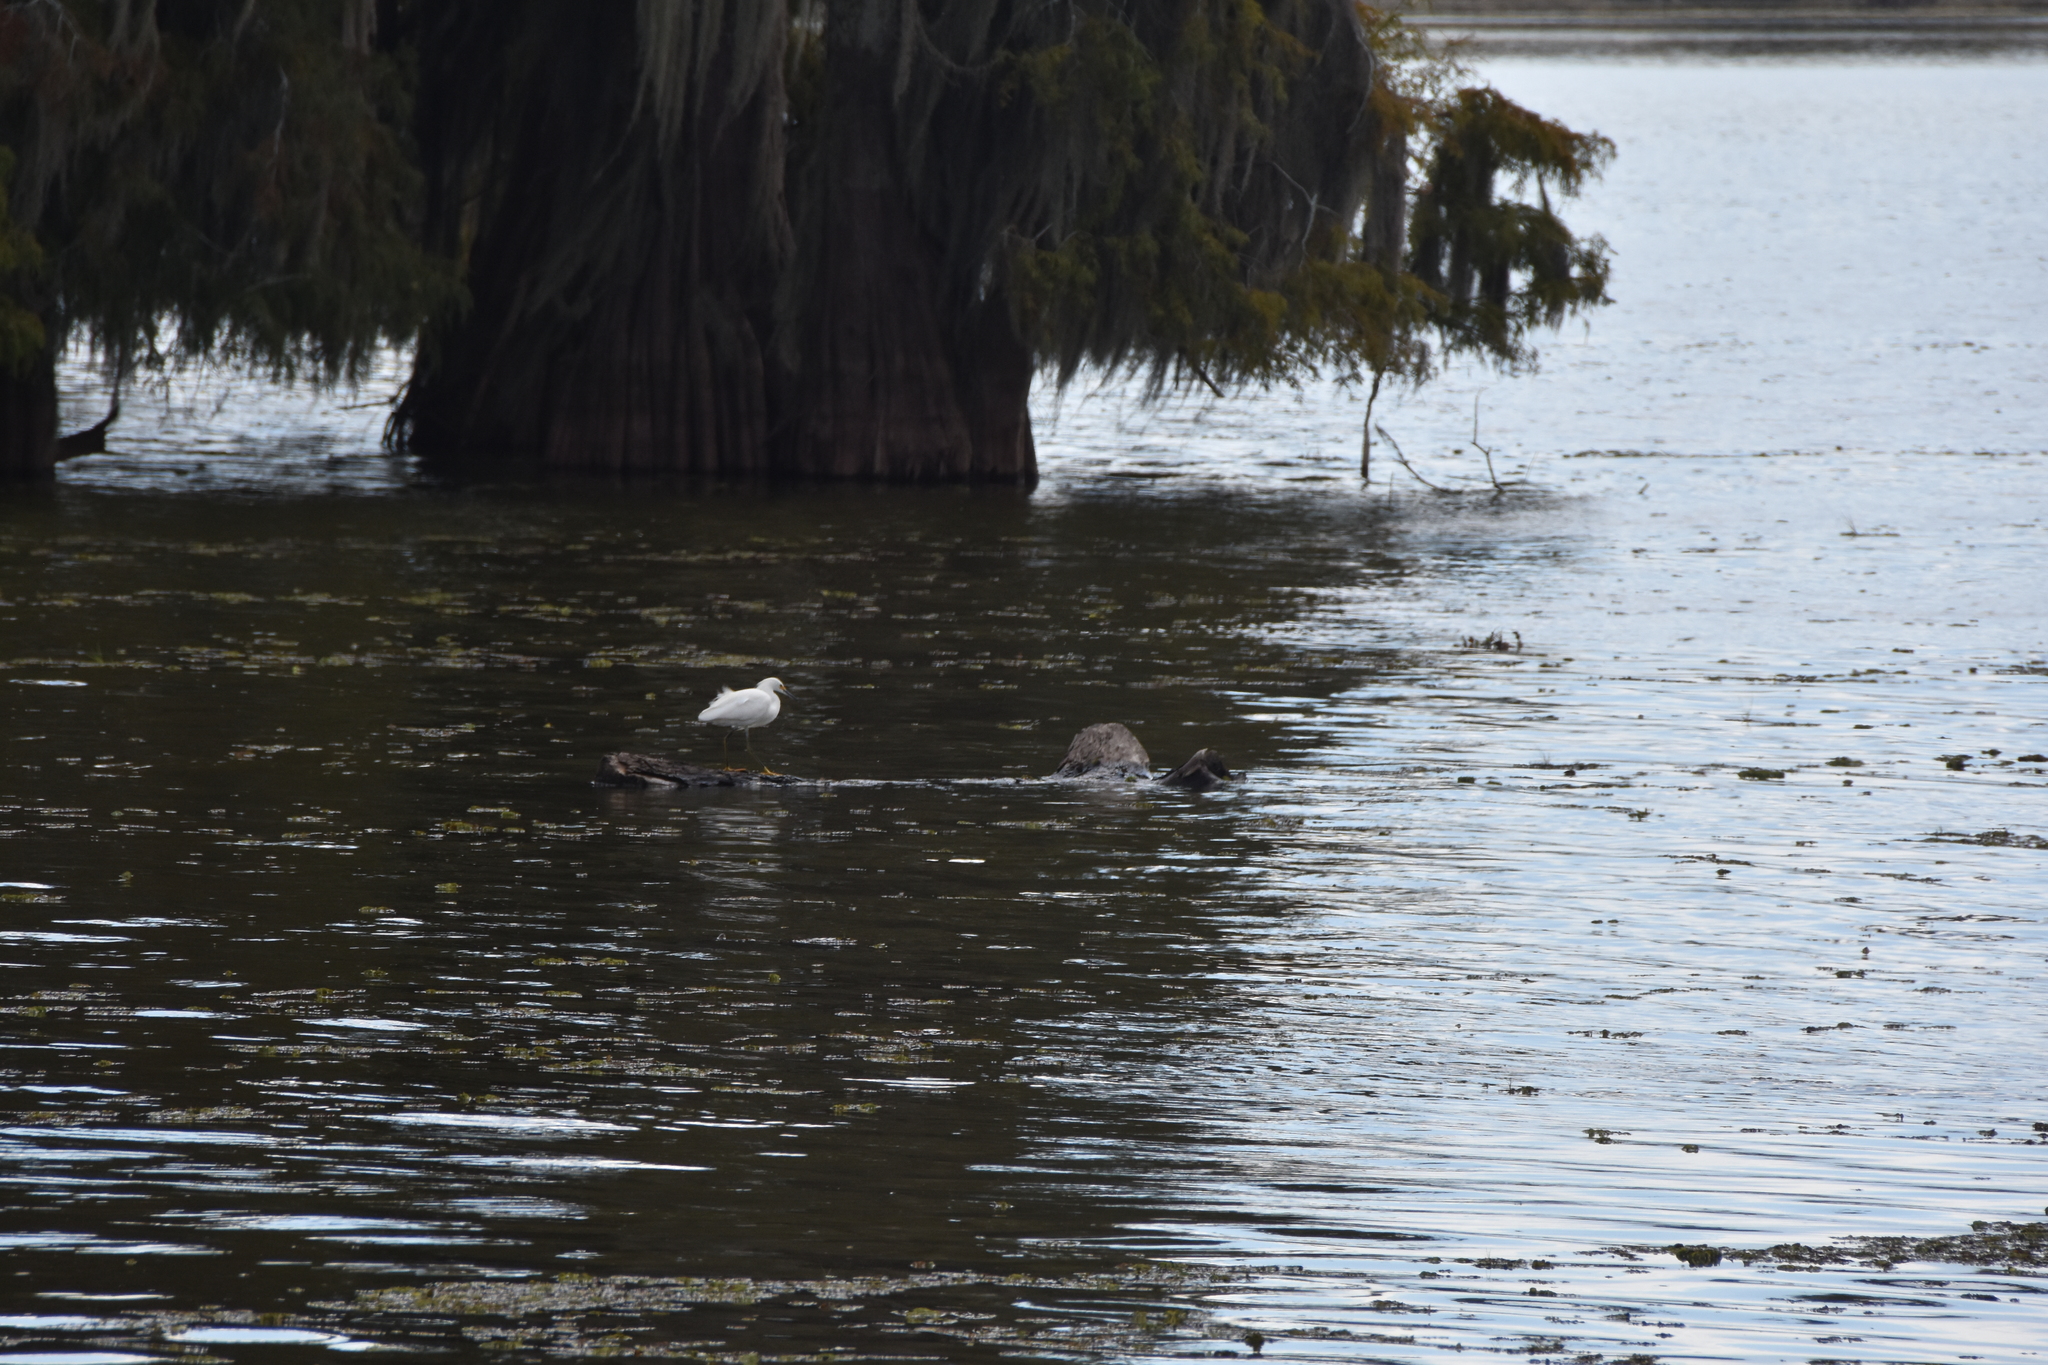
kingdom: Animalia
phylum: Chordata
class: Aves
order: Pelecaniformes
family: Ardeidae
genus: Egretta
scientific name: Egretta thula
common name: Snowy egret
